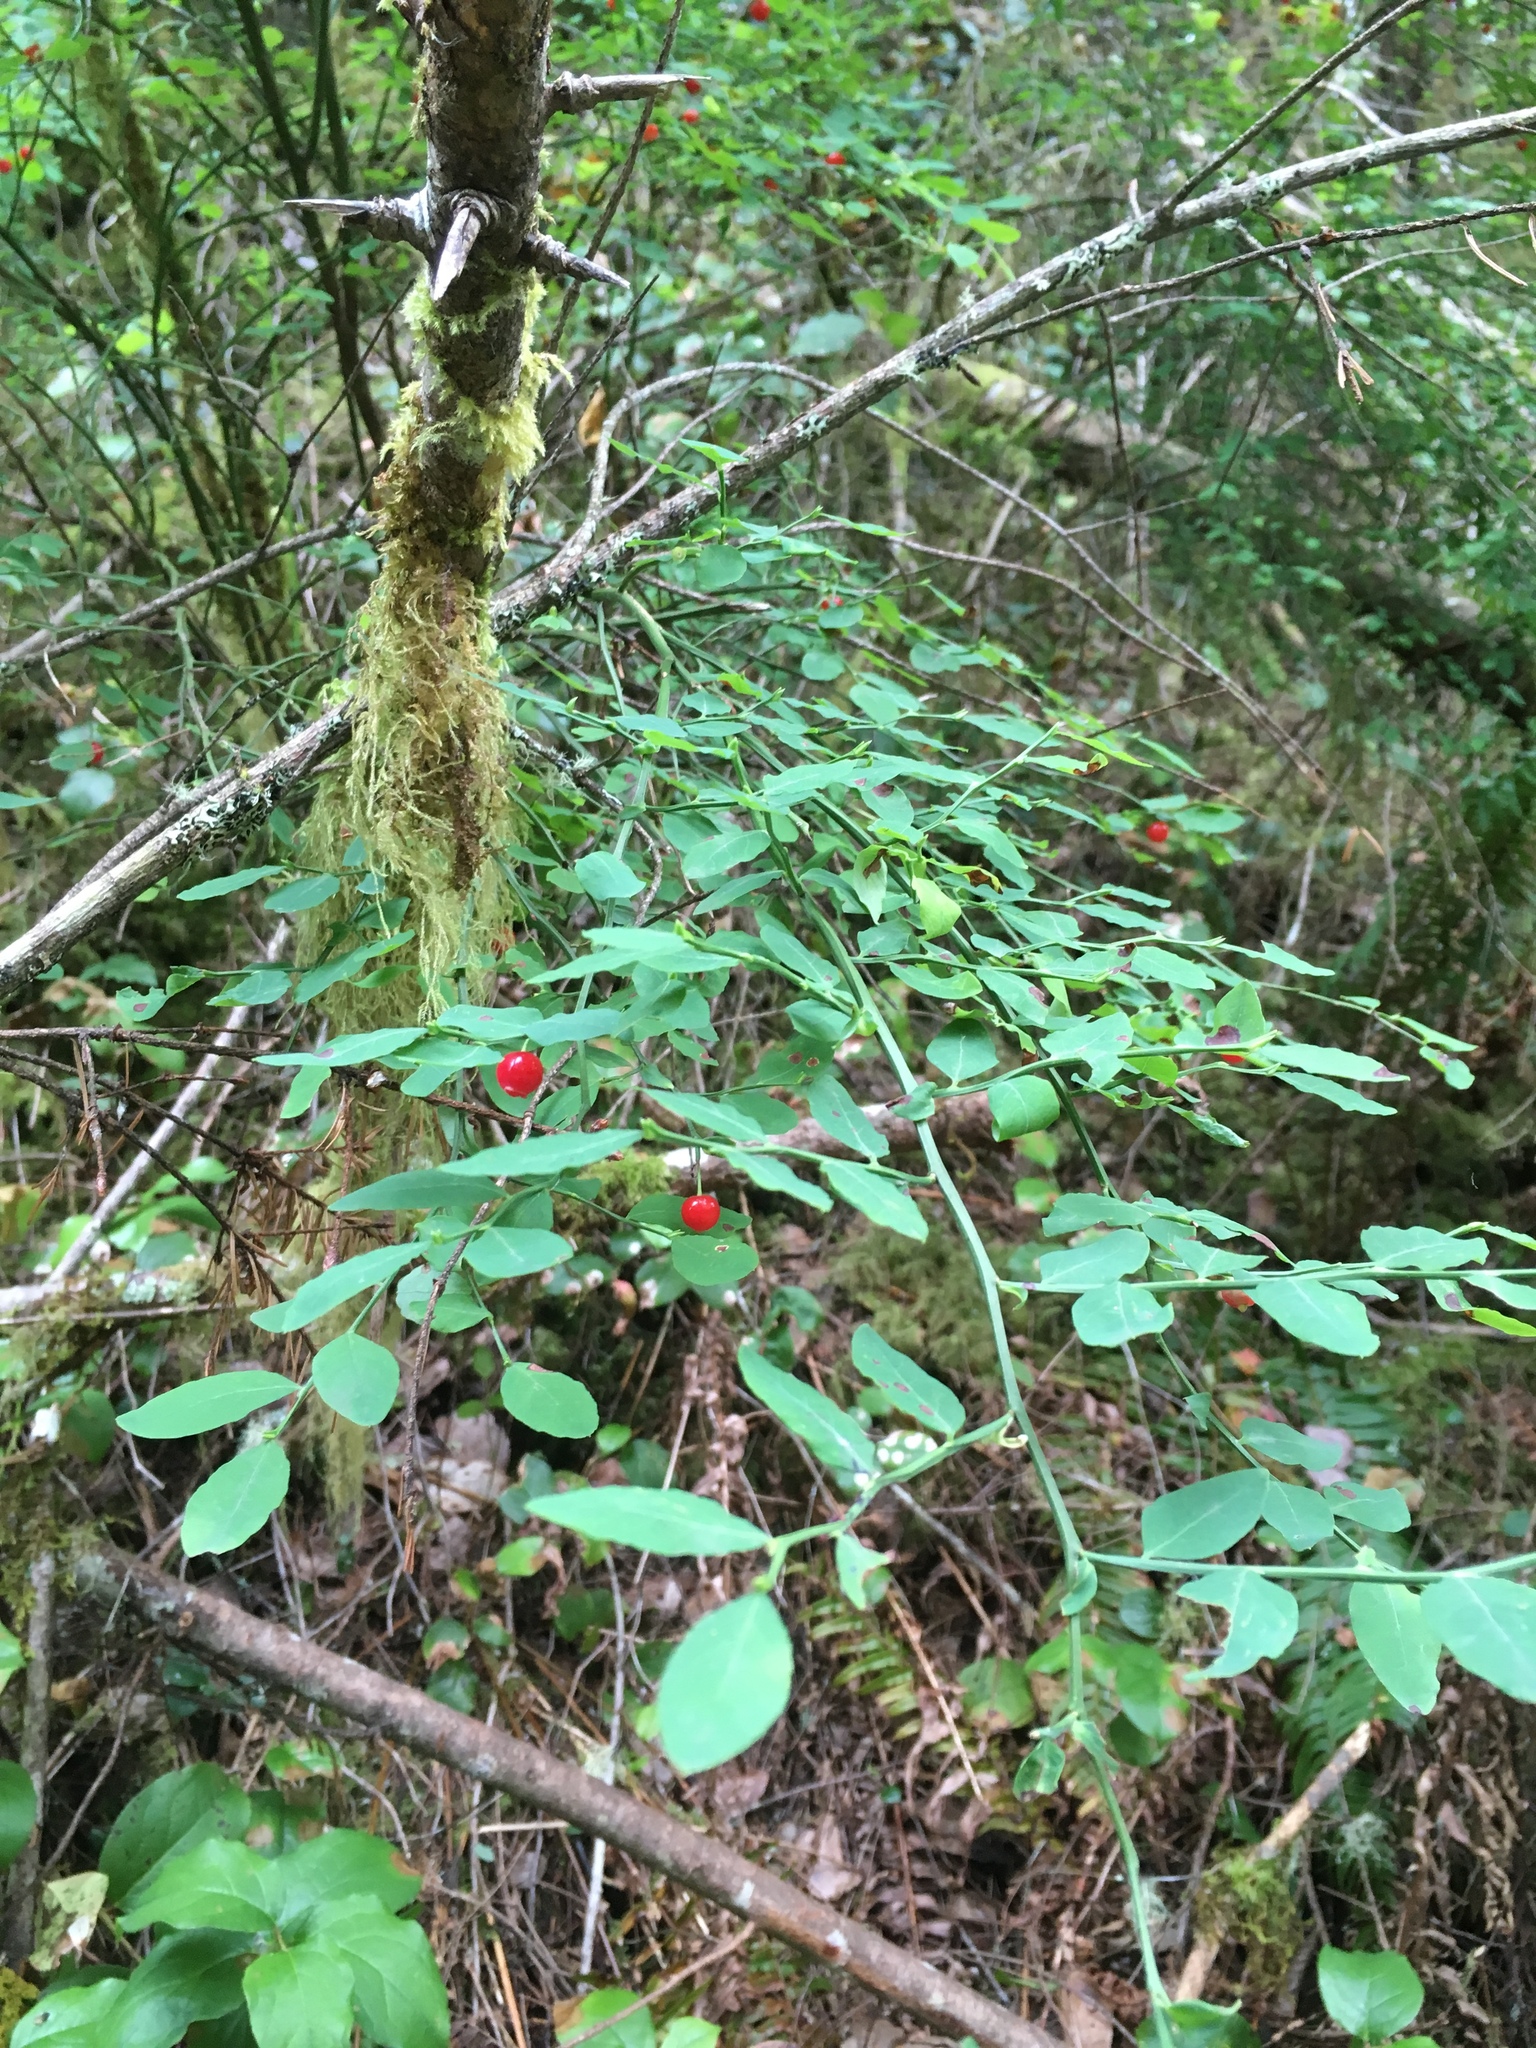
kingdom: Plantae
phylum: Tracheophyta
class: Magnoliopsida
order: Ericales
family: Ericaceae
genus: Vaccinium
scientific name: Vaccinium parvifolium
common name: Red-huckleberry
